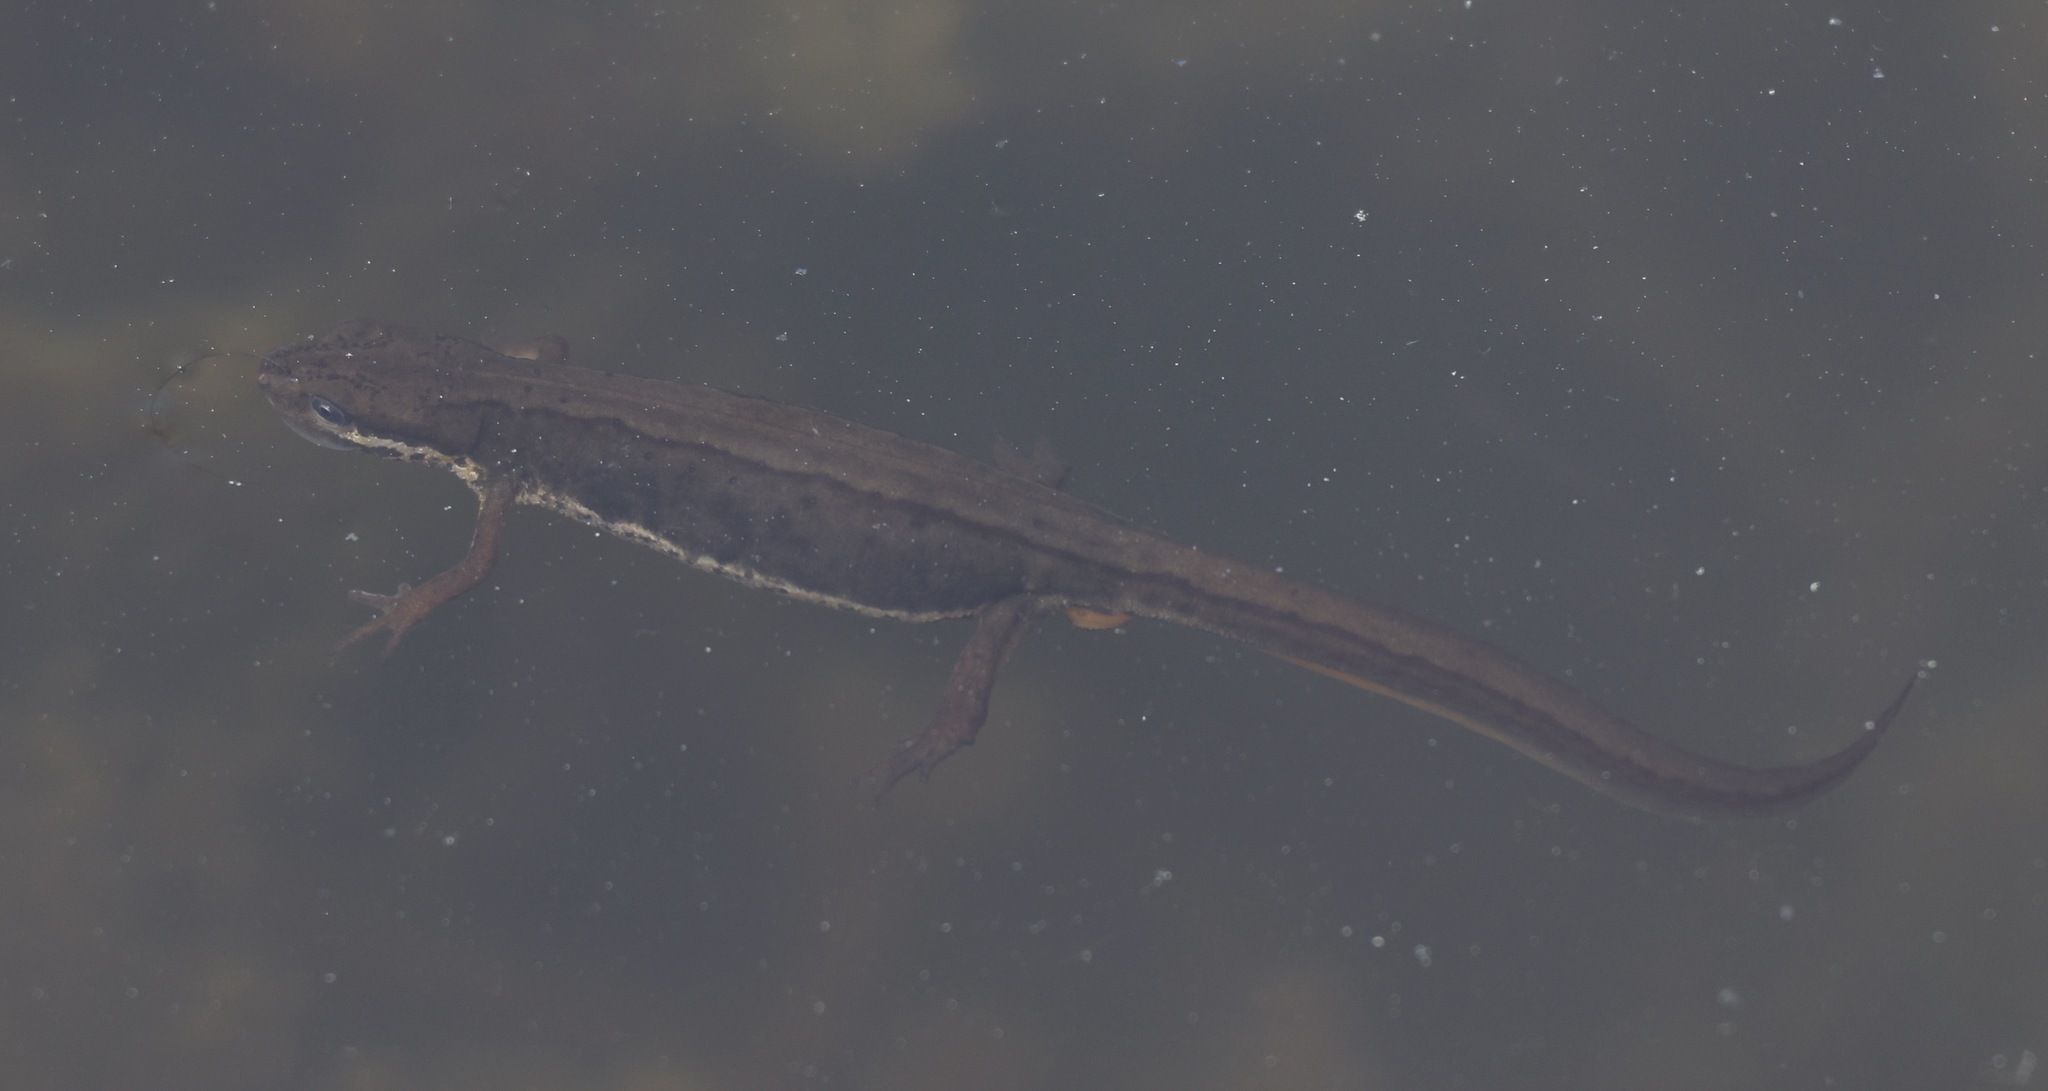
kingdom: Animalia
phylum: Chordata
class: Amphibia
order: Caudata
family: Salamandridae
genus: Lissotriton
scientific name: Lissotriton vulgaris
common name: Smooth newt
